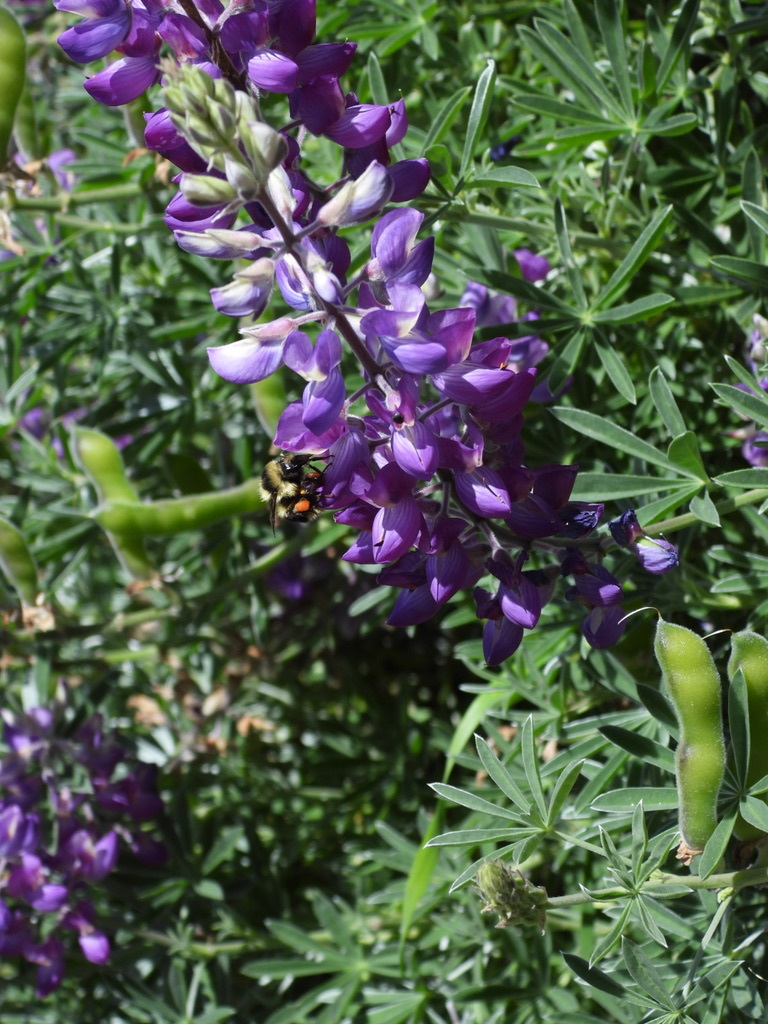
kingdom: Animalia
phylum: Arthropoda
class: Insecta
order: Hymenoptera
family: Apidae
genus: Bombus
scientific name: Bombus melanopygus
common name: Black tail bumble bee
